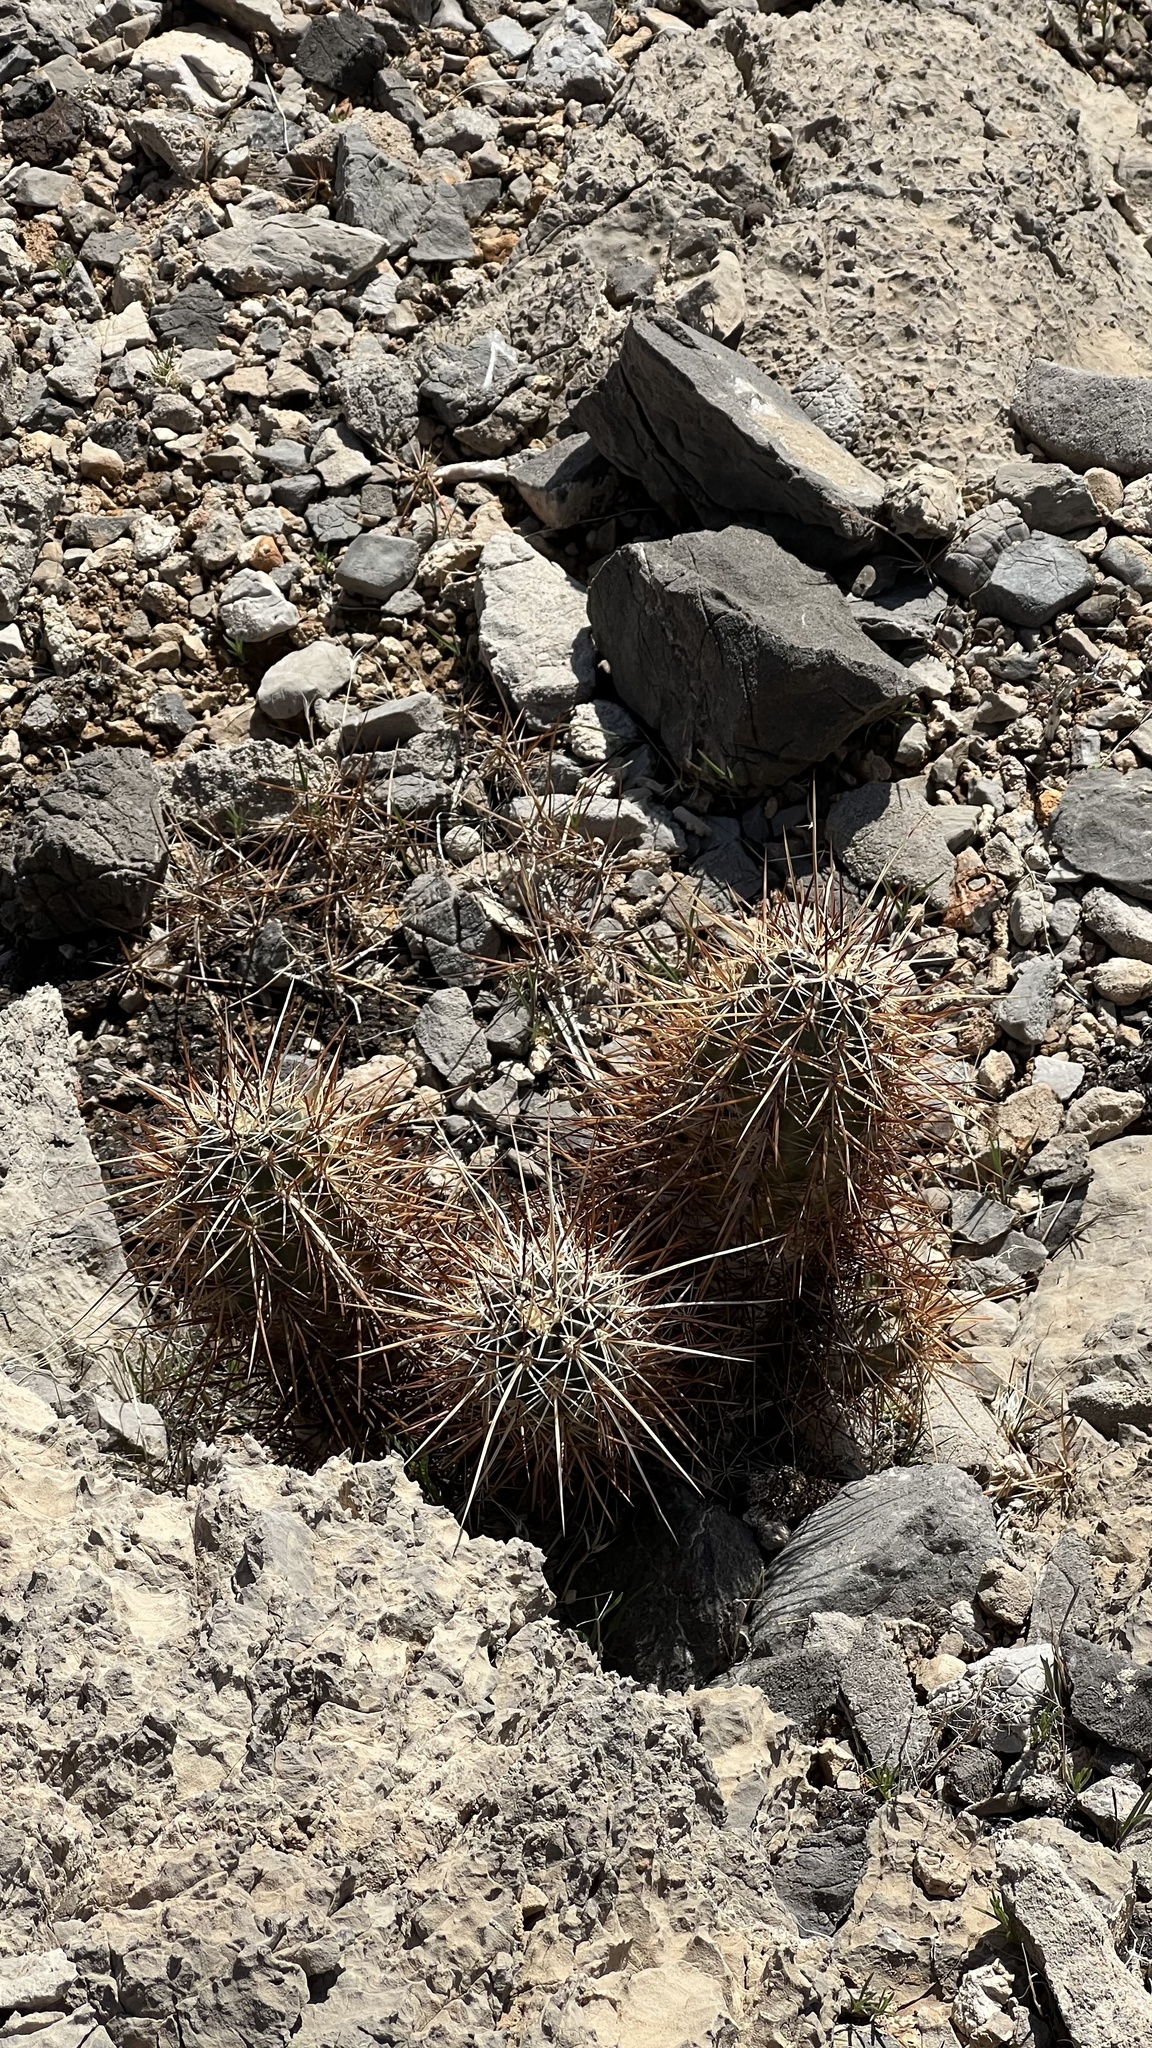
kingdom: Plantae
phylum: Tracheophyta
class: Magnoliopsida
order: Caryophyllales
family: Cactaceae
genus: Echinocereus
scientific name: Echinocereus engelmannii
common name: Engelmann's hedgehog cactus
